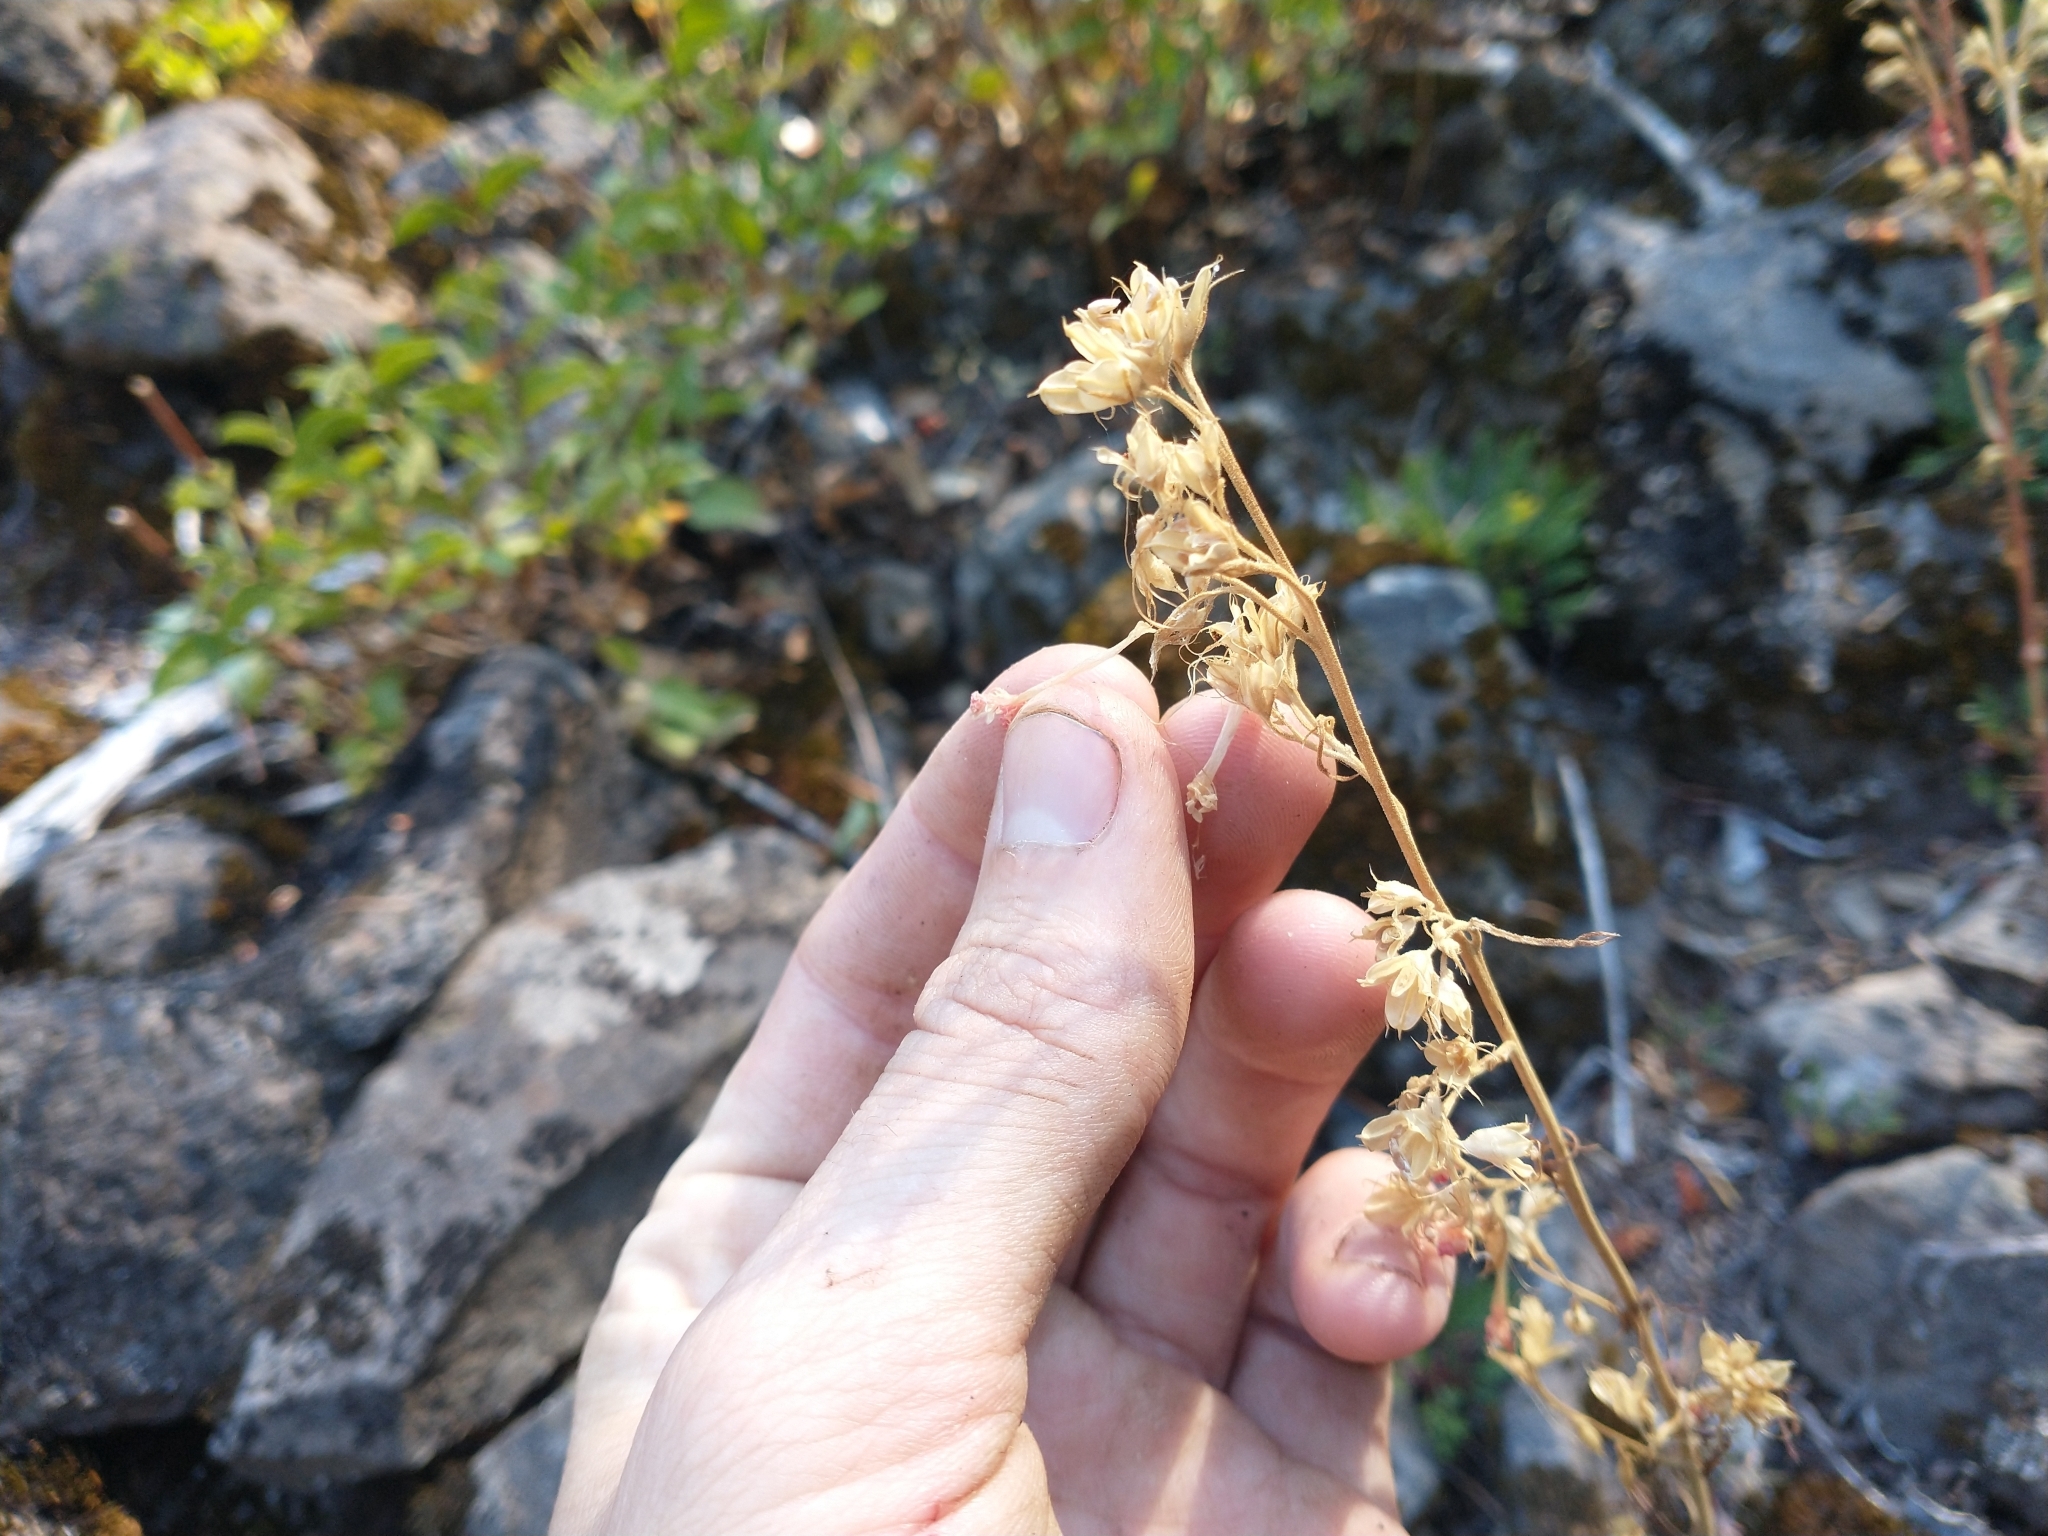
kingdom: Plantae
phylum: Tracheophyta
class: Magnoliopsida
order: Ericales
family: Polemoniaceae
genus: Ipomopsis
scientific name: Ipomopsis aggregata
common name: Scarlet gilia
